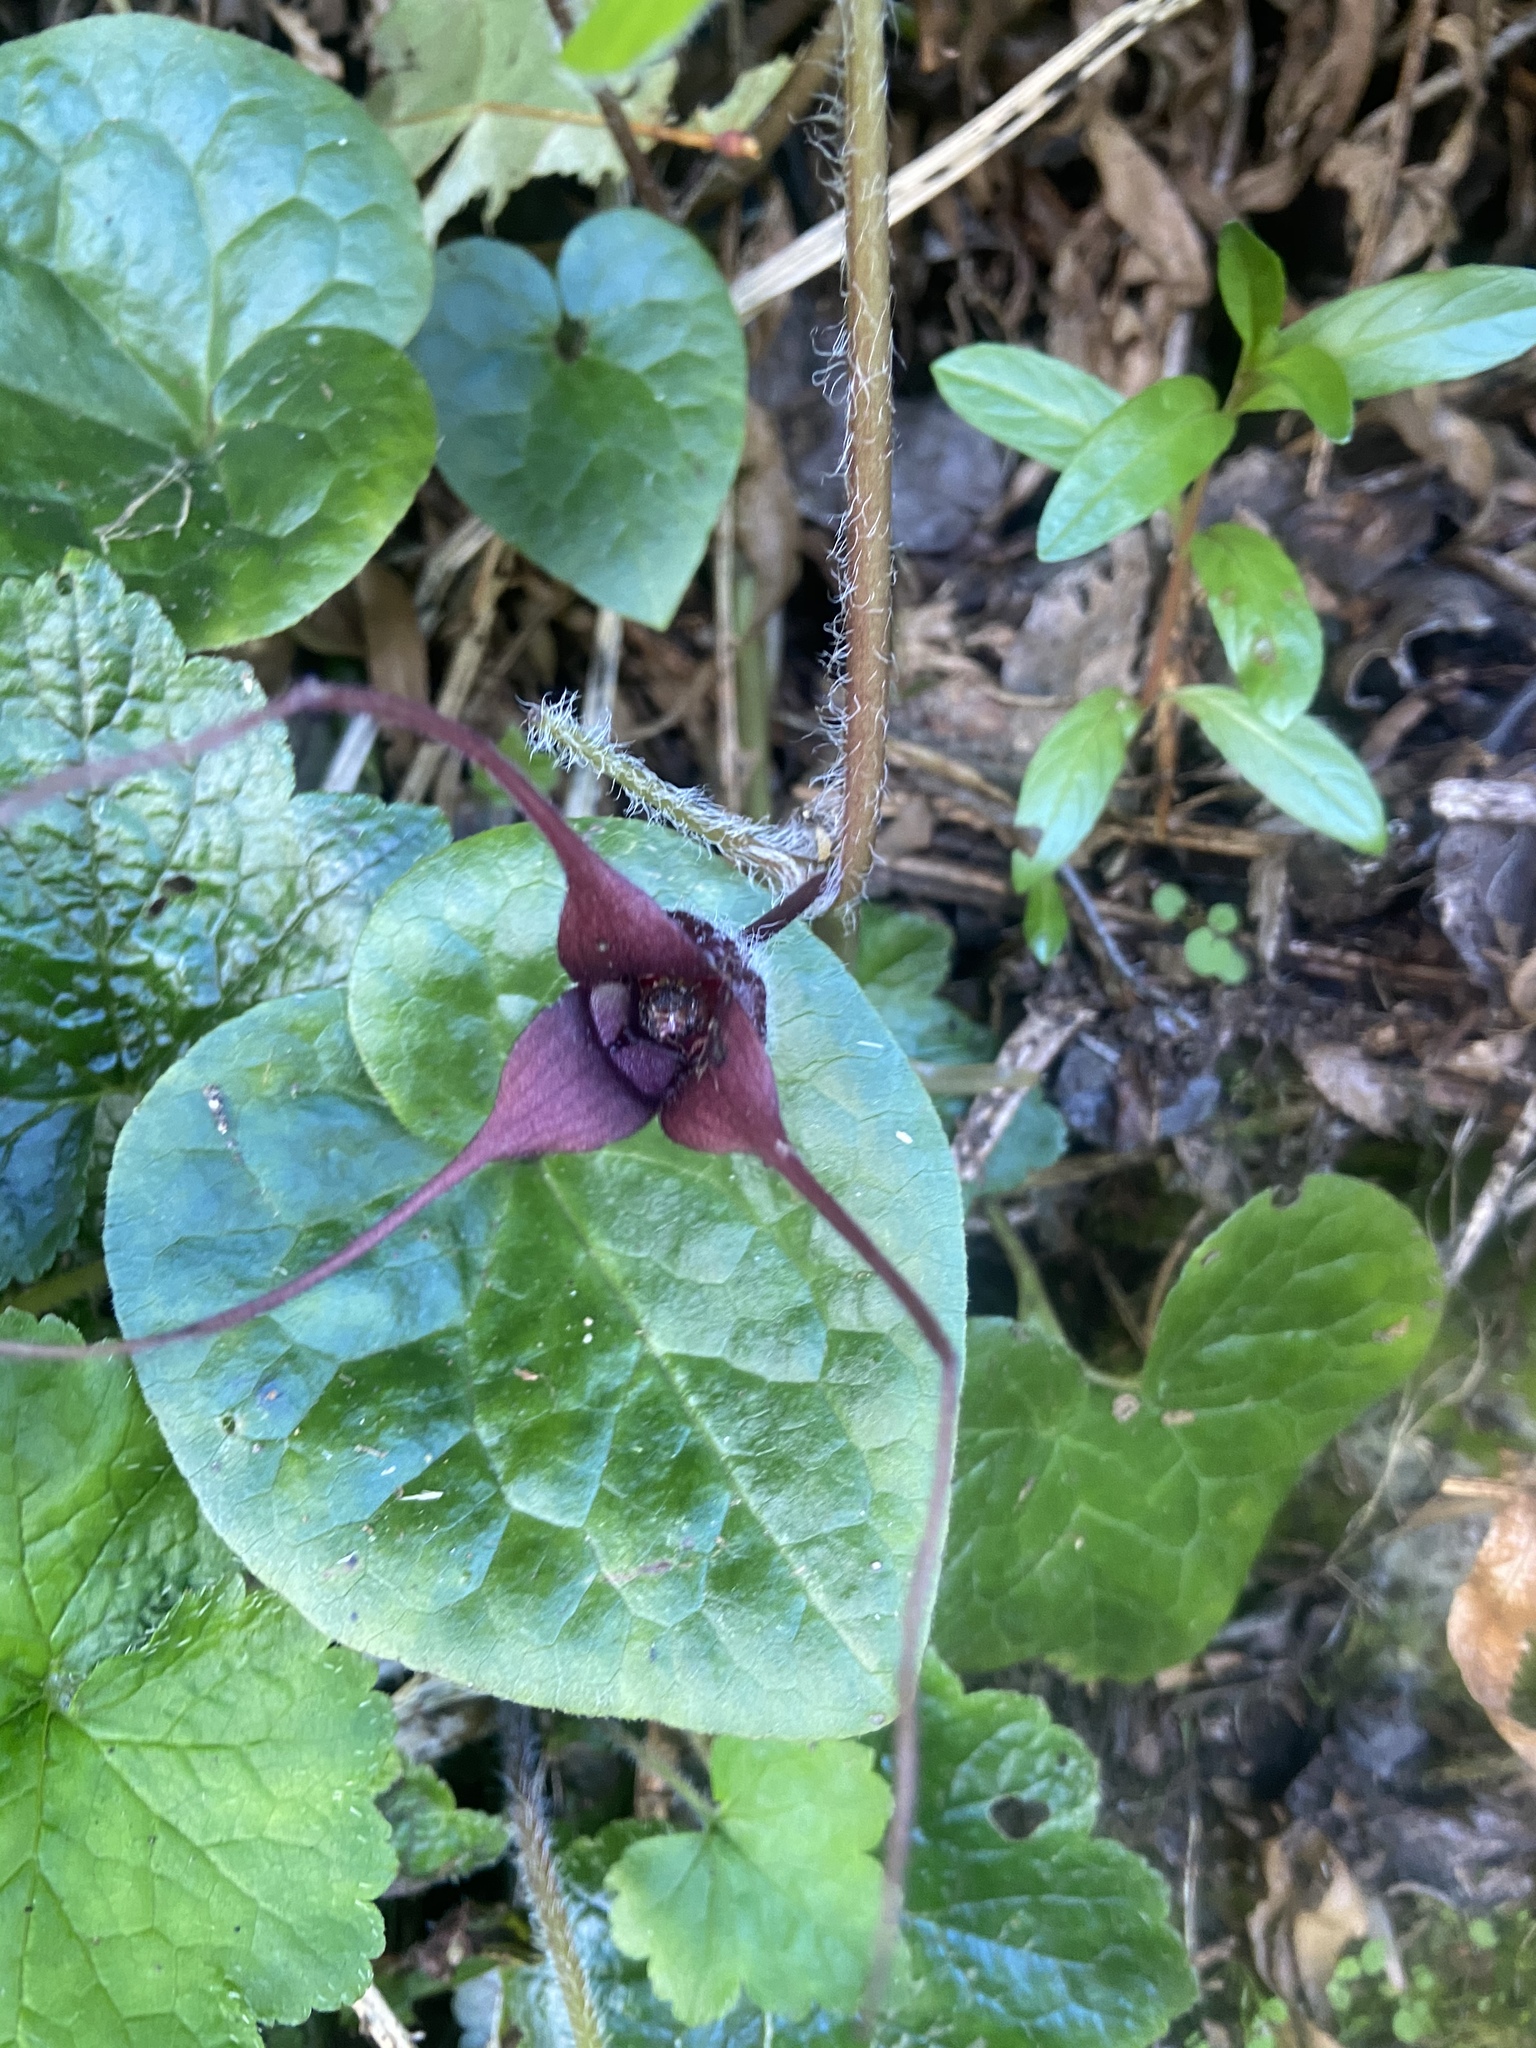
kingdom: Plantae
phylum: Tracheophyta
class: Magnoliopsida
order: Piperales
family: Aristolochiaceae
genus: Asarum
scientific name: Asarum caudatum
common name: Wild ginger
